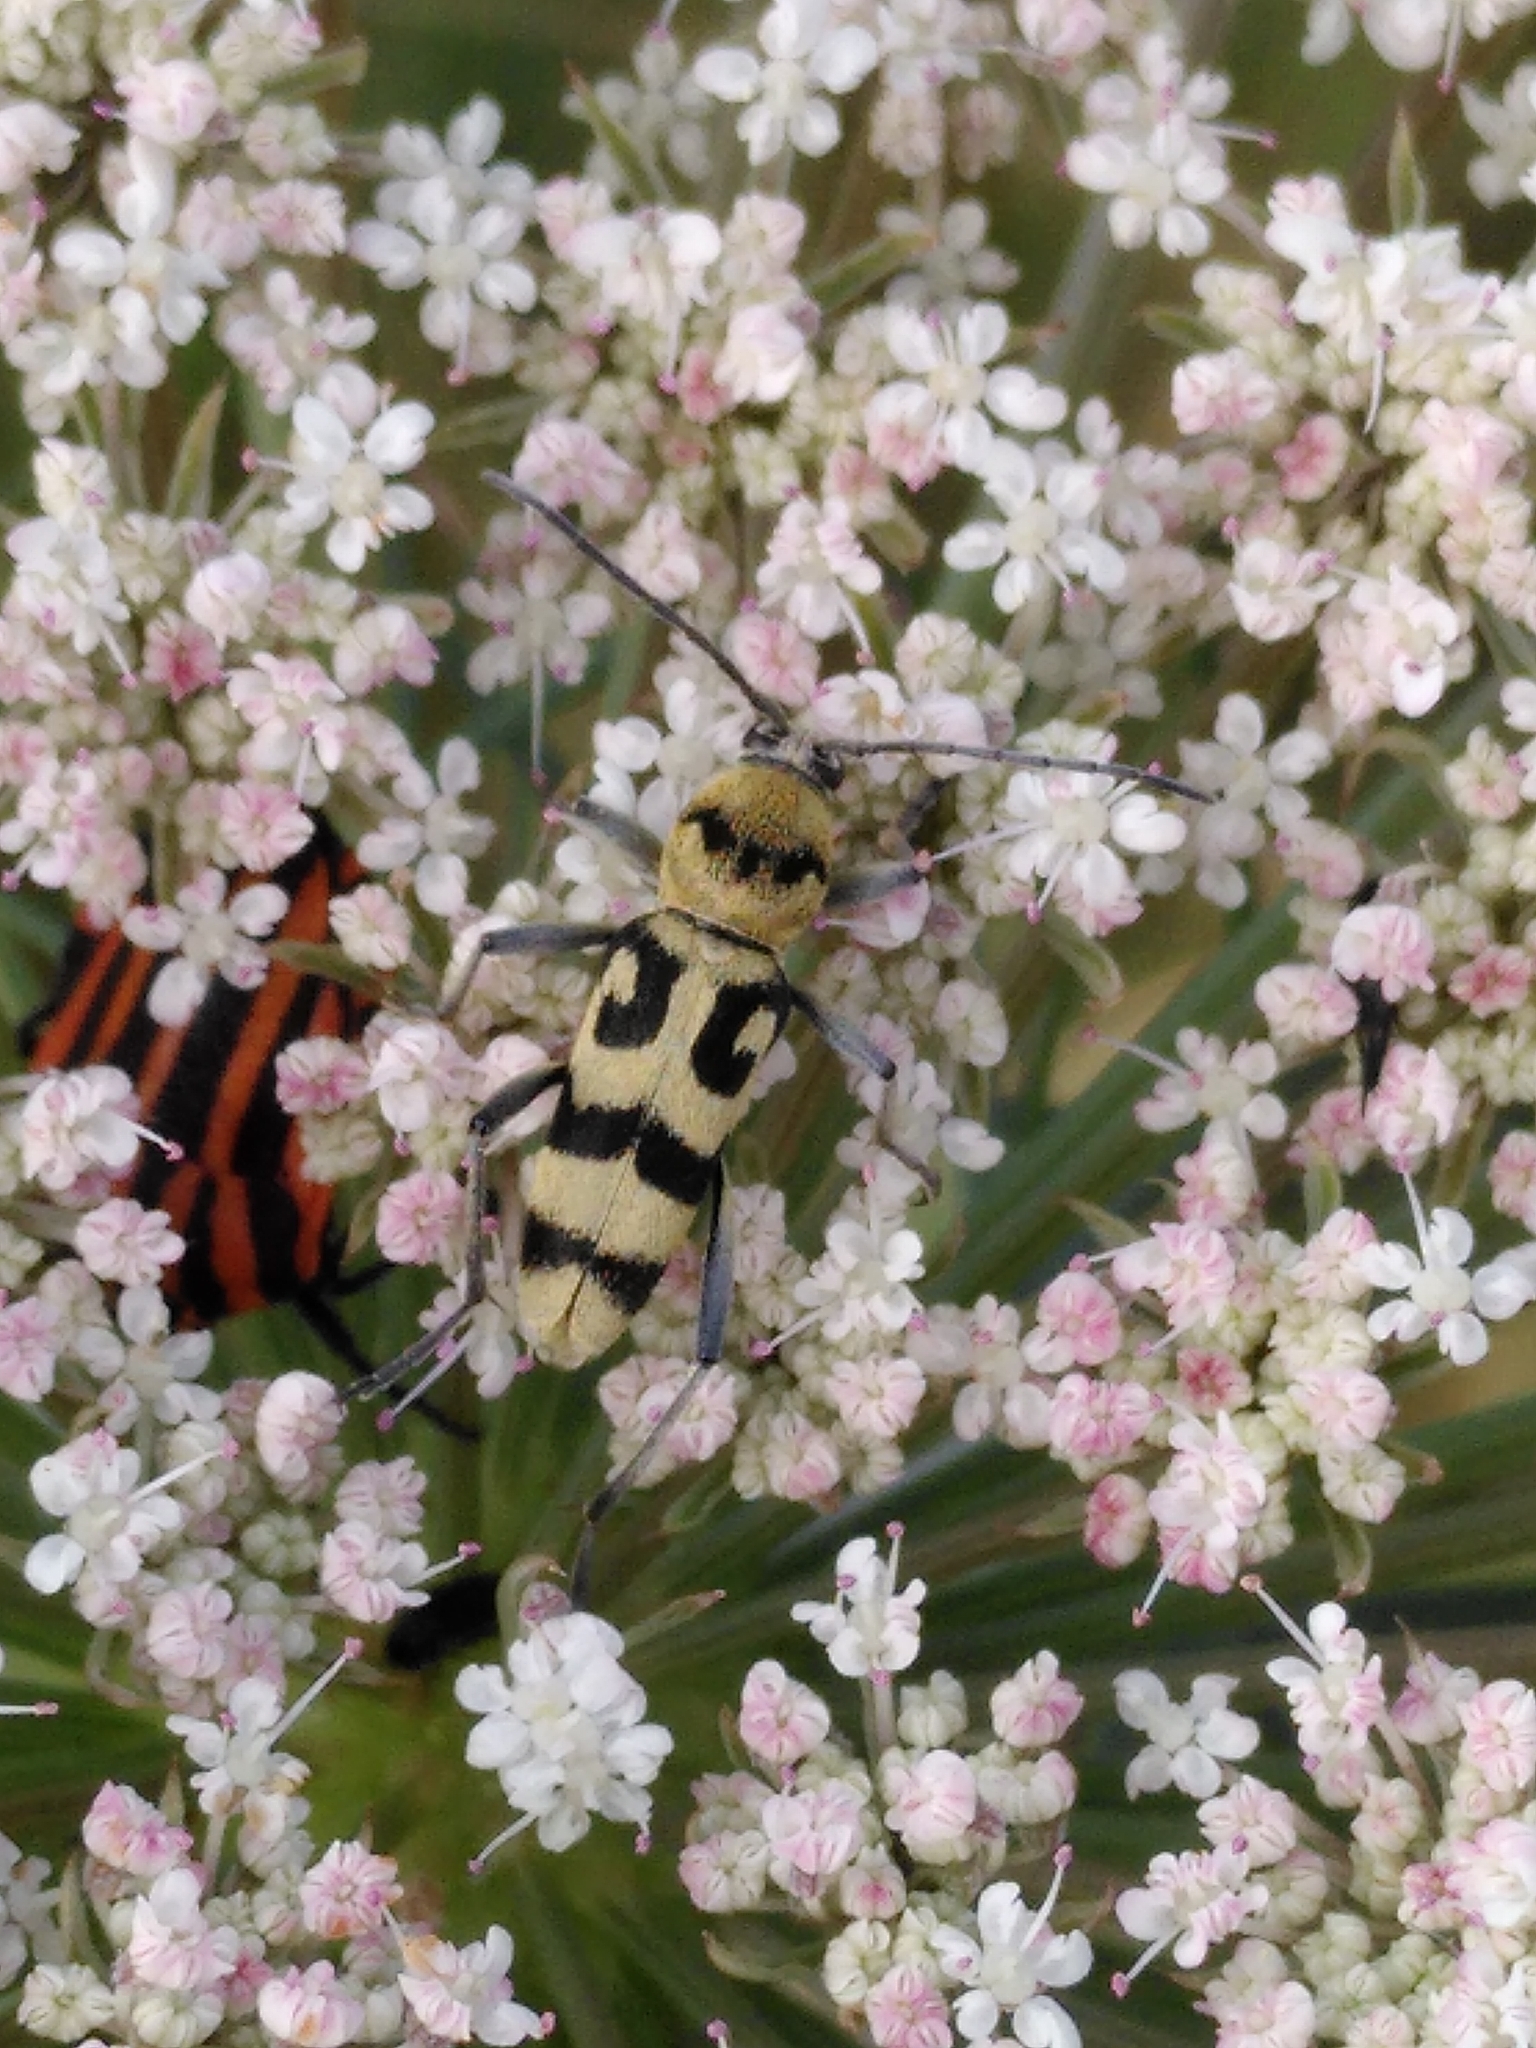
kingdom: Animalia
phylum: Arthropoda
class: Insecta
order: Coleoptera
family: Cerambycidae
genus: Chlorophorus
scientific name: Chlorophorus varius
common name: Grape wood borer
